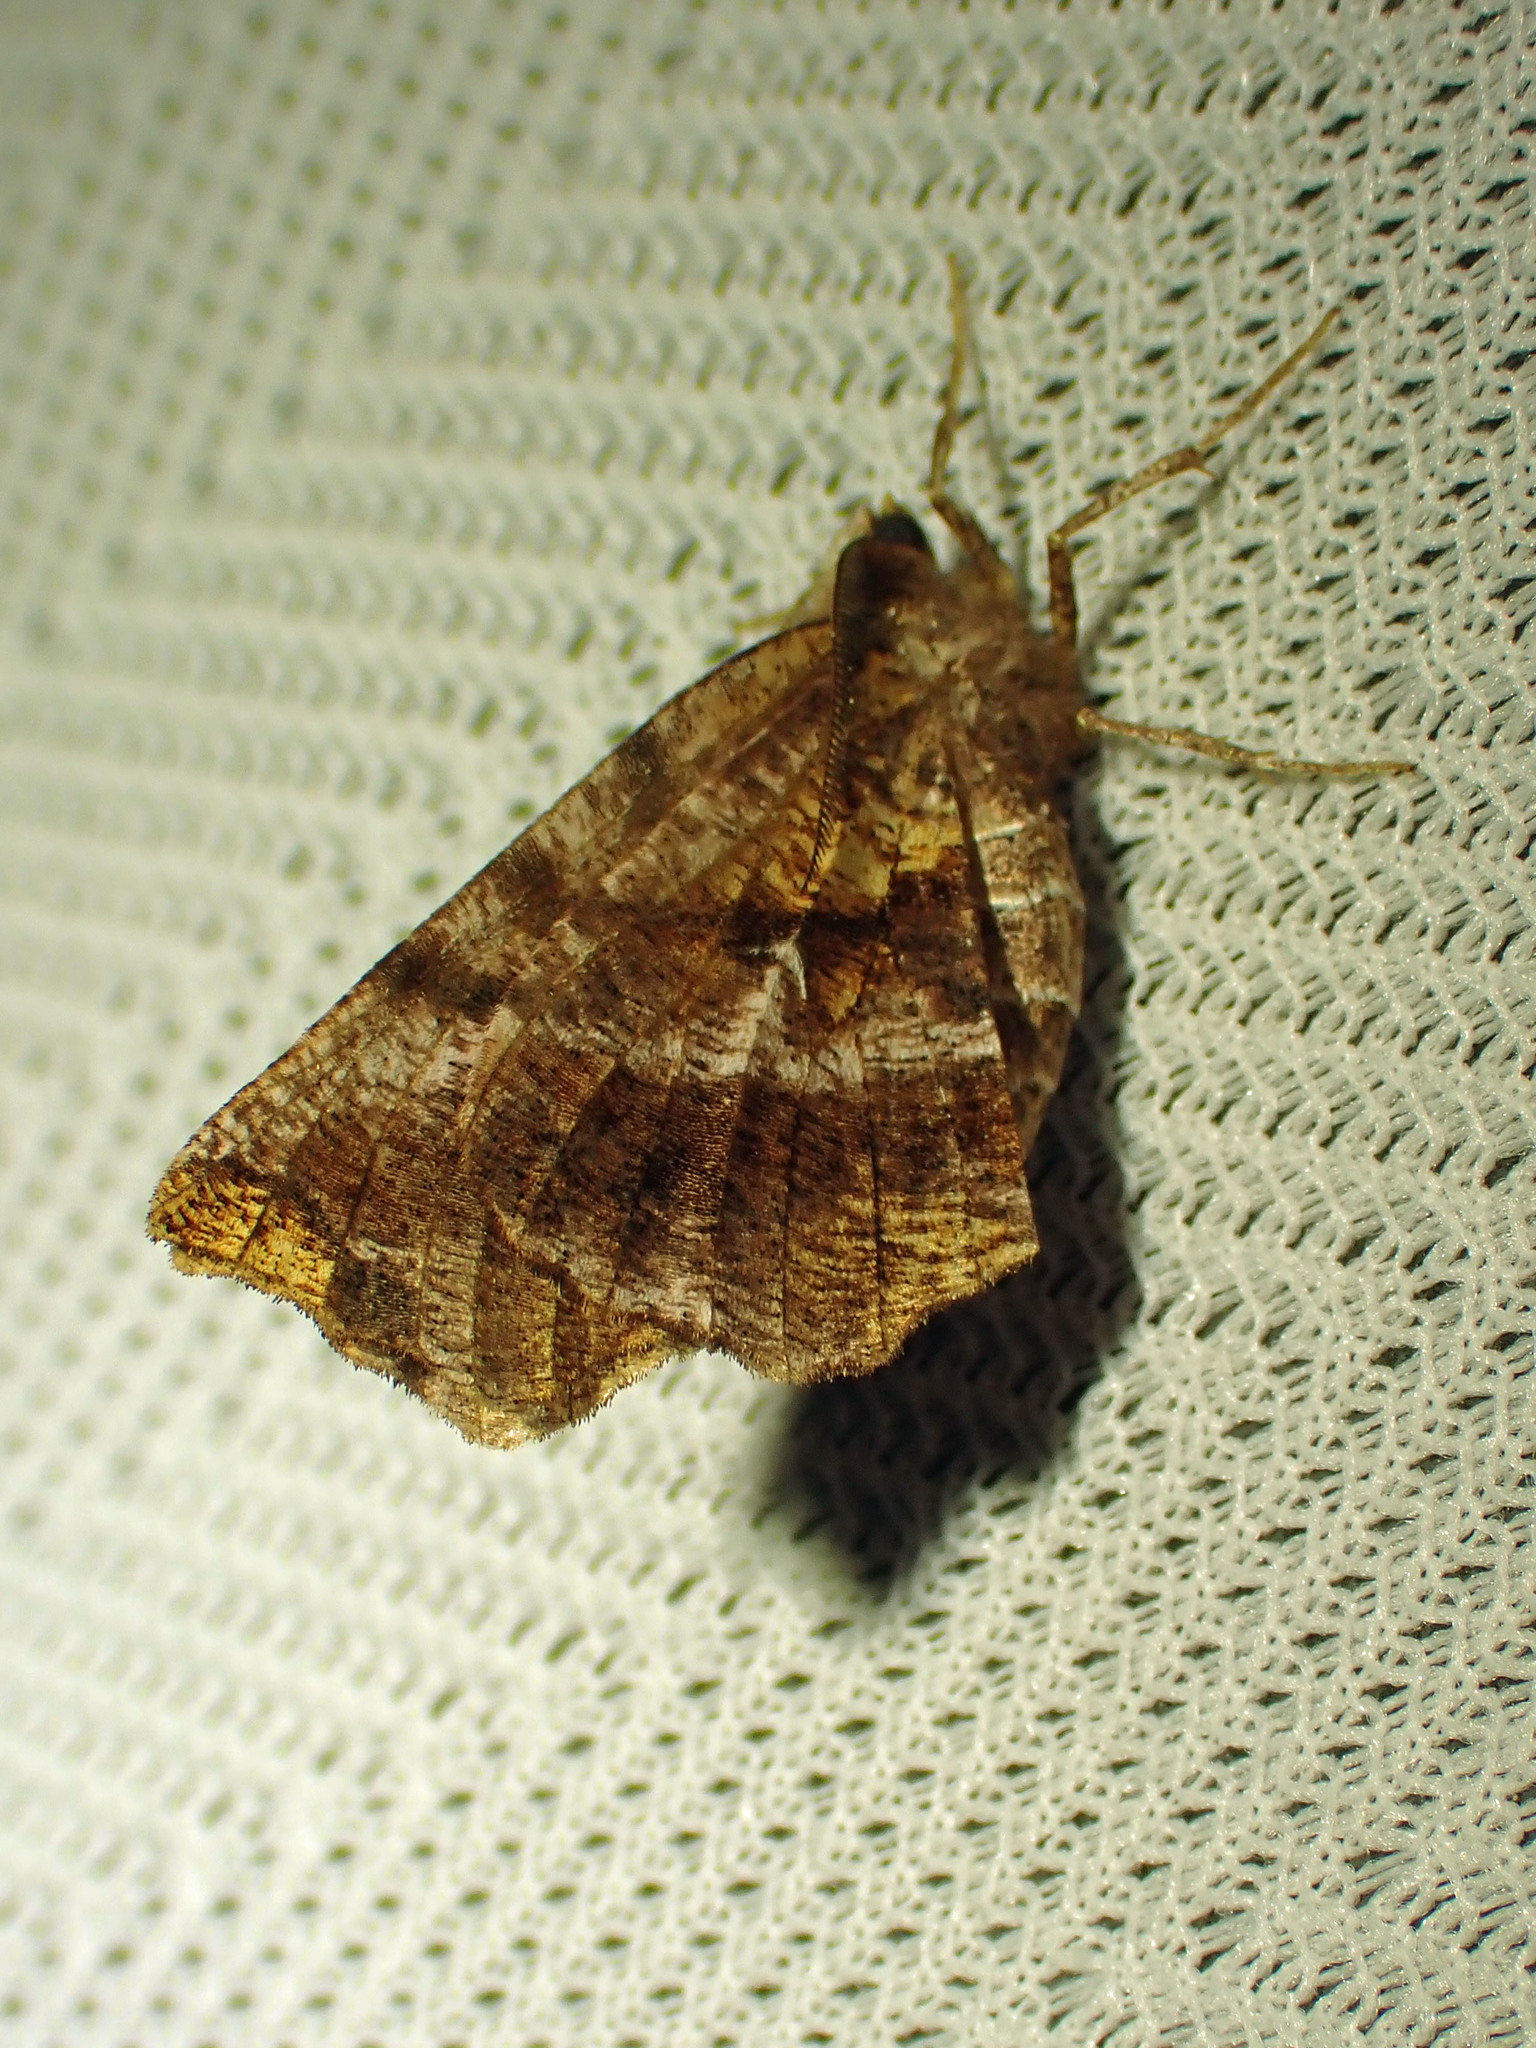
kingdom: Animalia
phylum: Arthropoda
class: Insecta
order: Lepidoptera
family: Geometridae
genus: Selenia
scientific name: Selenia alciphearia
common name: Brown-tipped thorn
